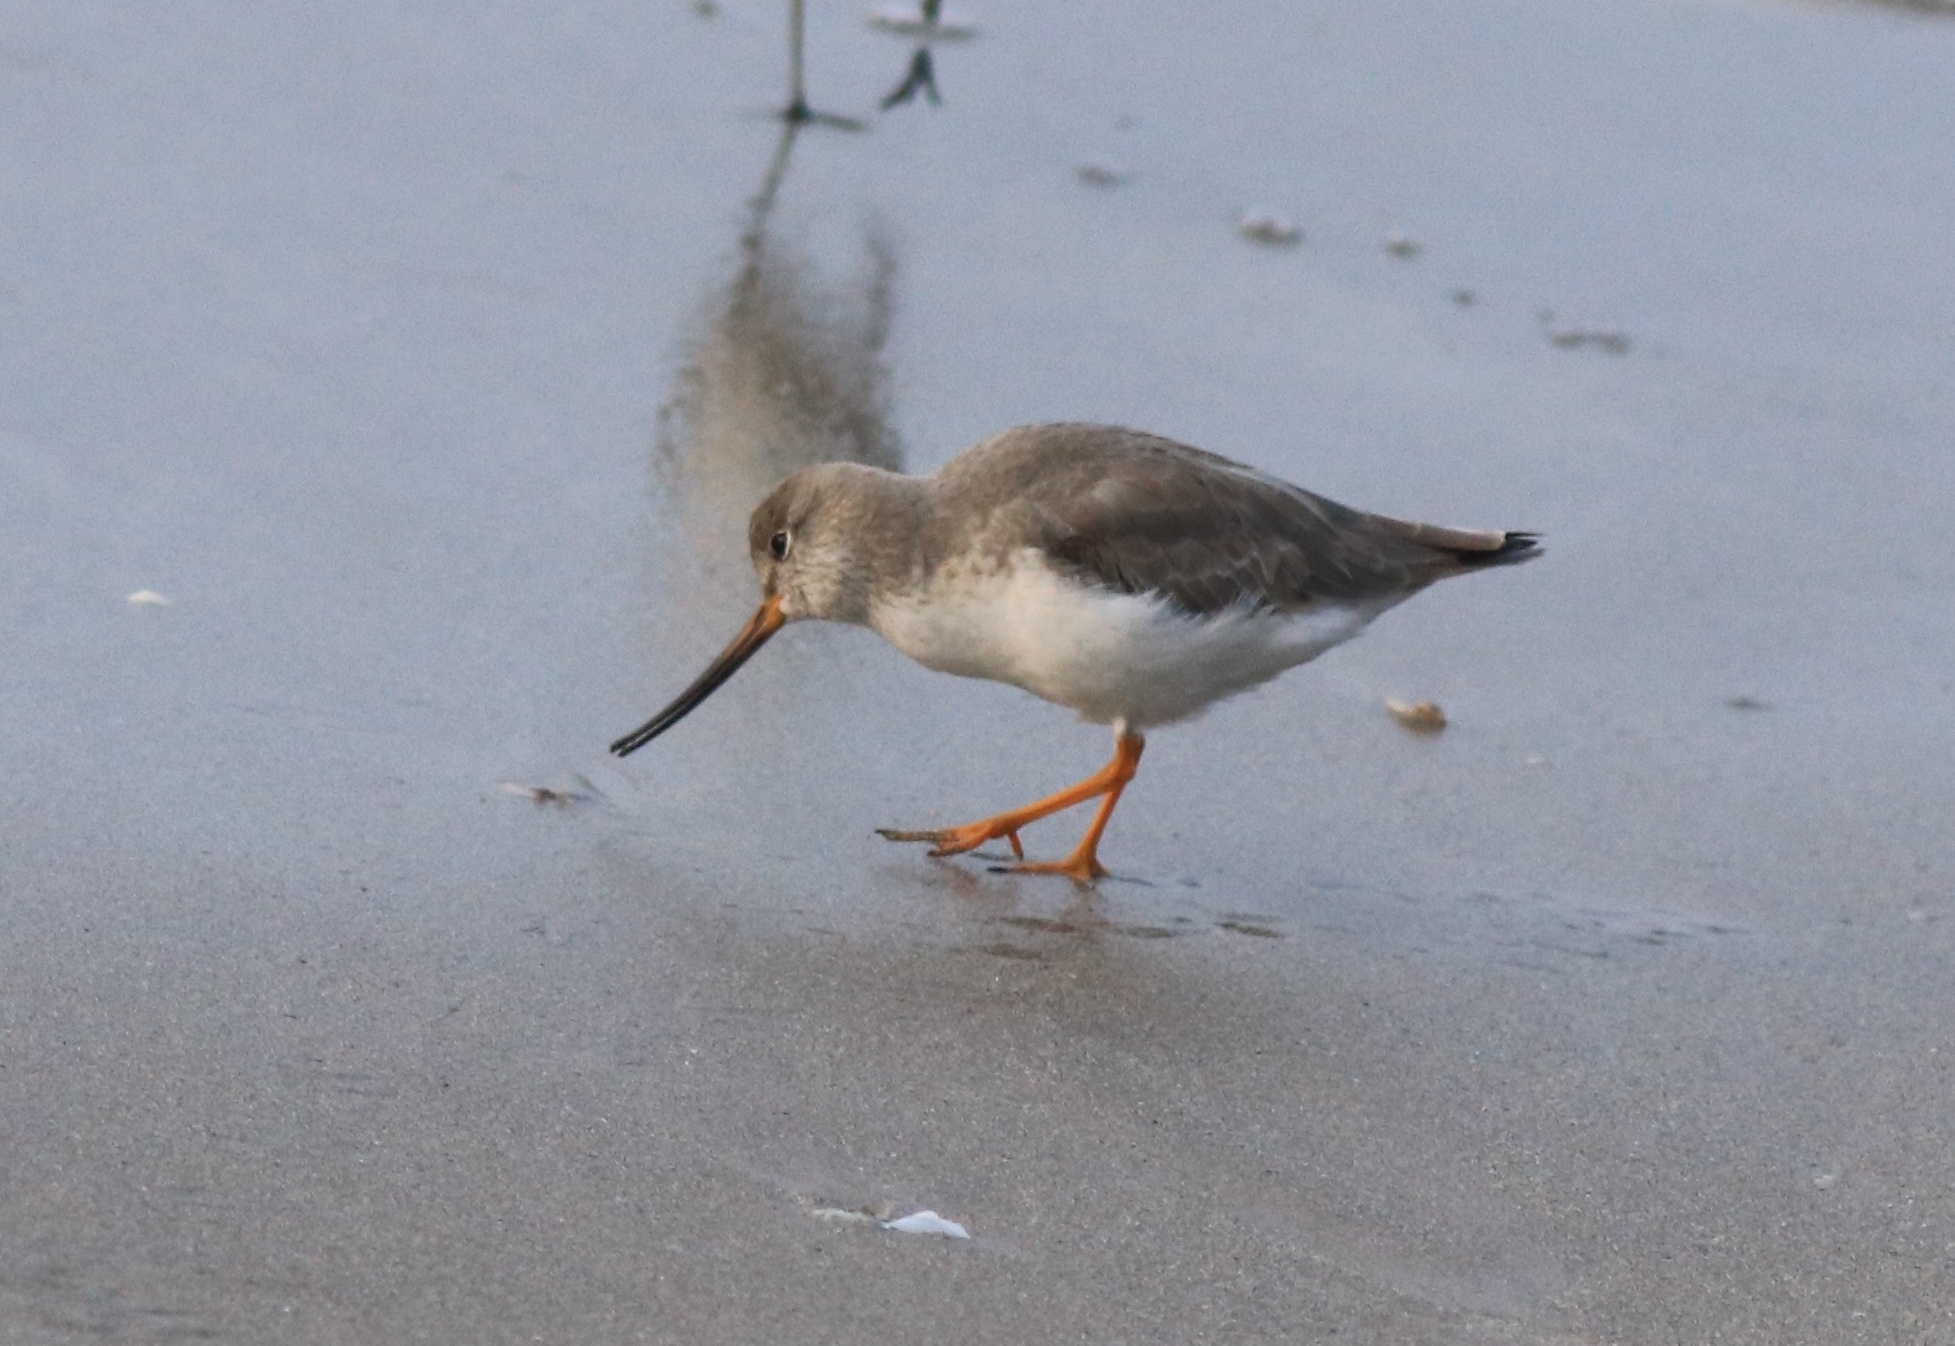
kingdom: Animalia
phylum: Chordata
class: Aves
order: Charadriiformes
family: Scolopacidae
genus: Xenus
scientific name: Xenus cinereus
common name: Terek sandpiper
